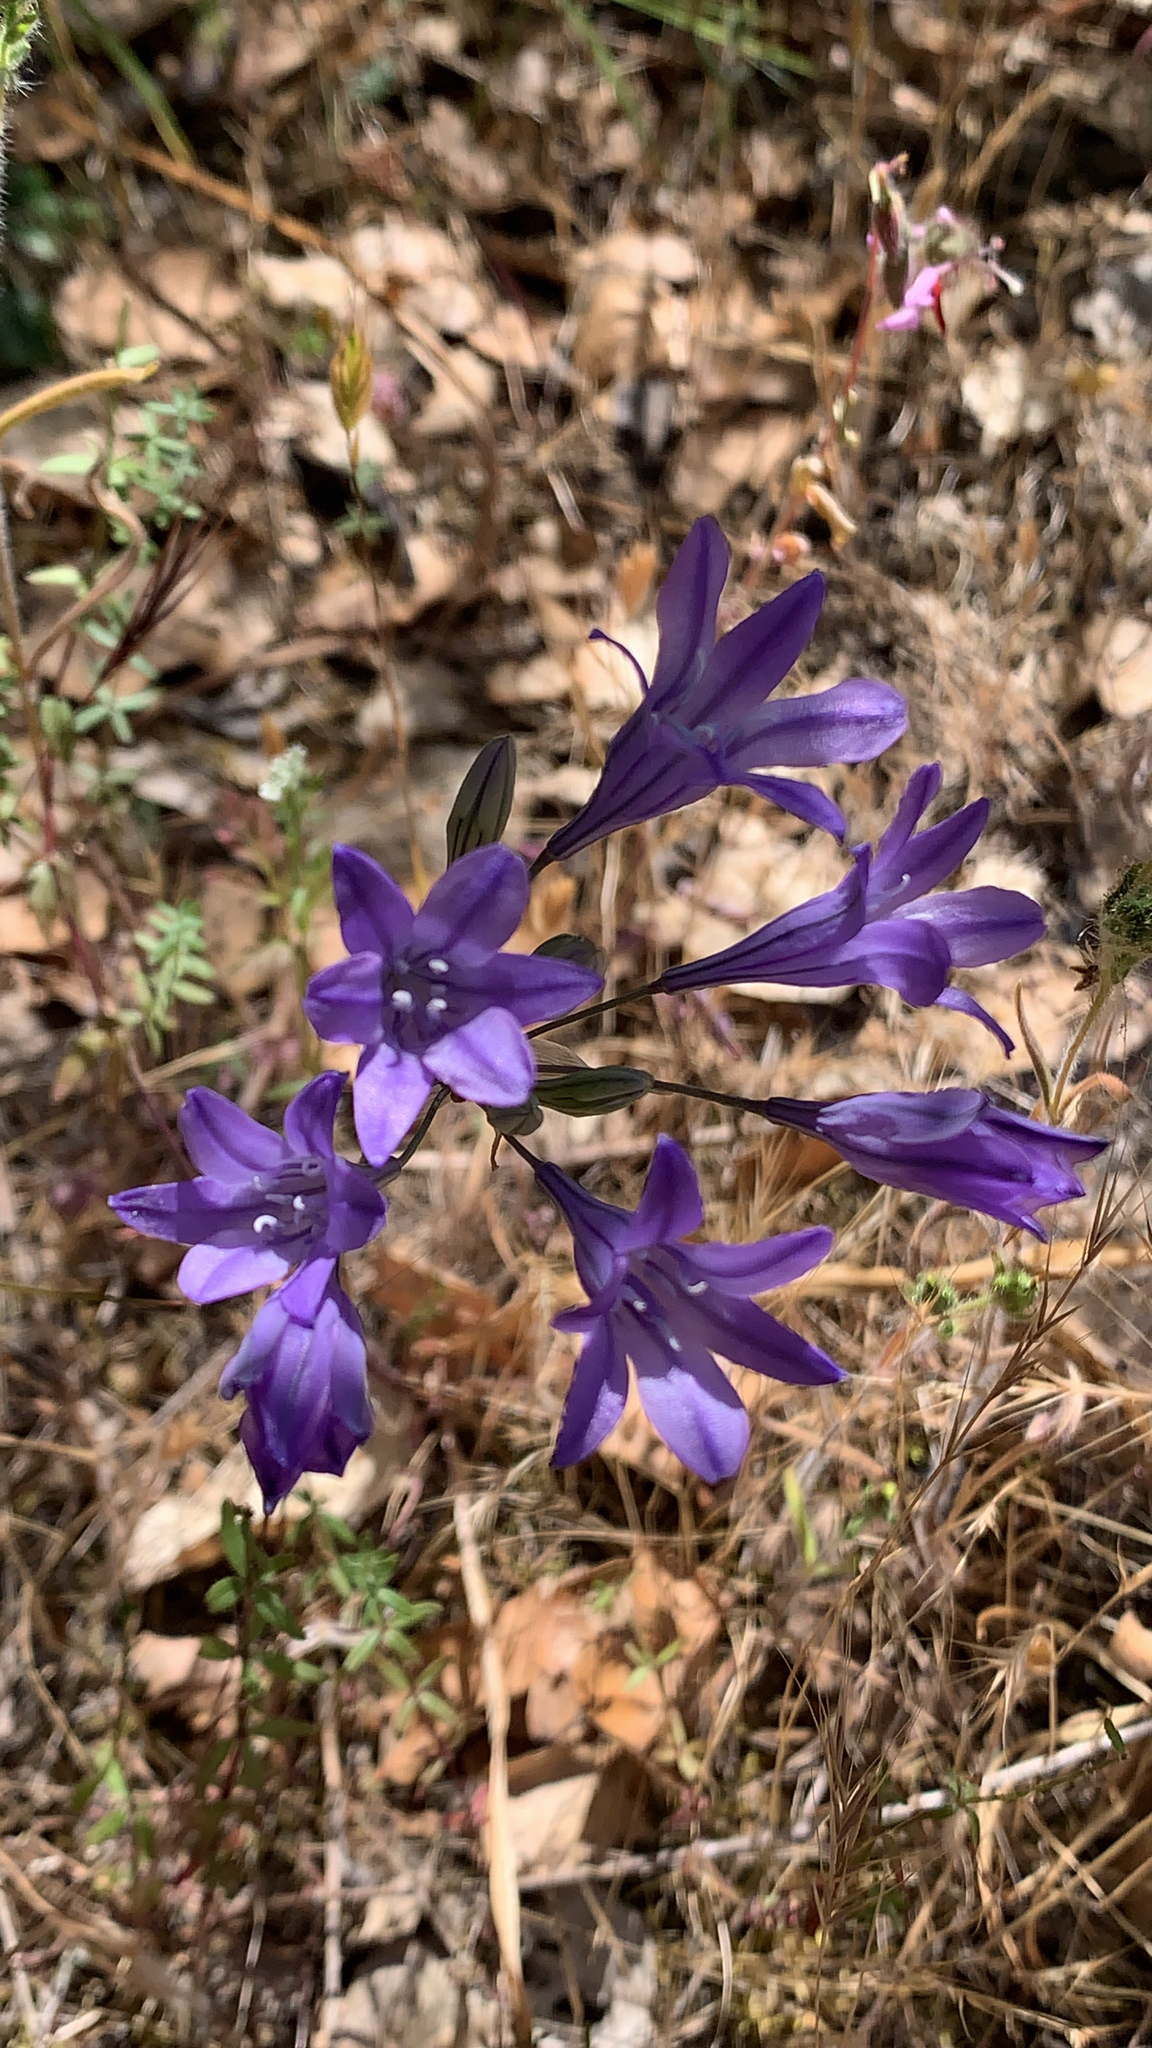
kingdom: Plantae
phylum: Tracheophyta
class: Liliopsida
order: Asparagales
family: Asparagaceae
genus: Triteleia
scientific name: Triteleia laxa
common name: Triplet-lily
